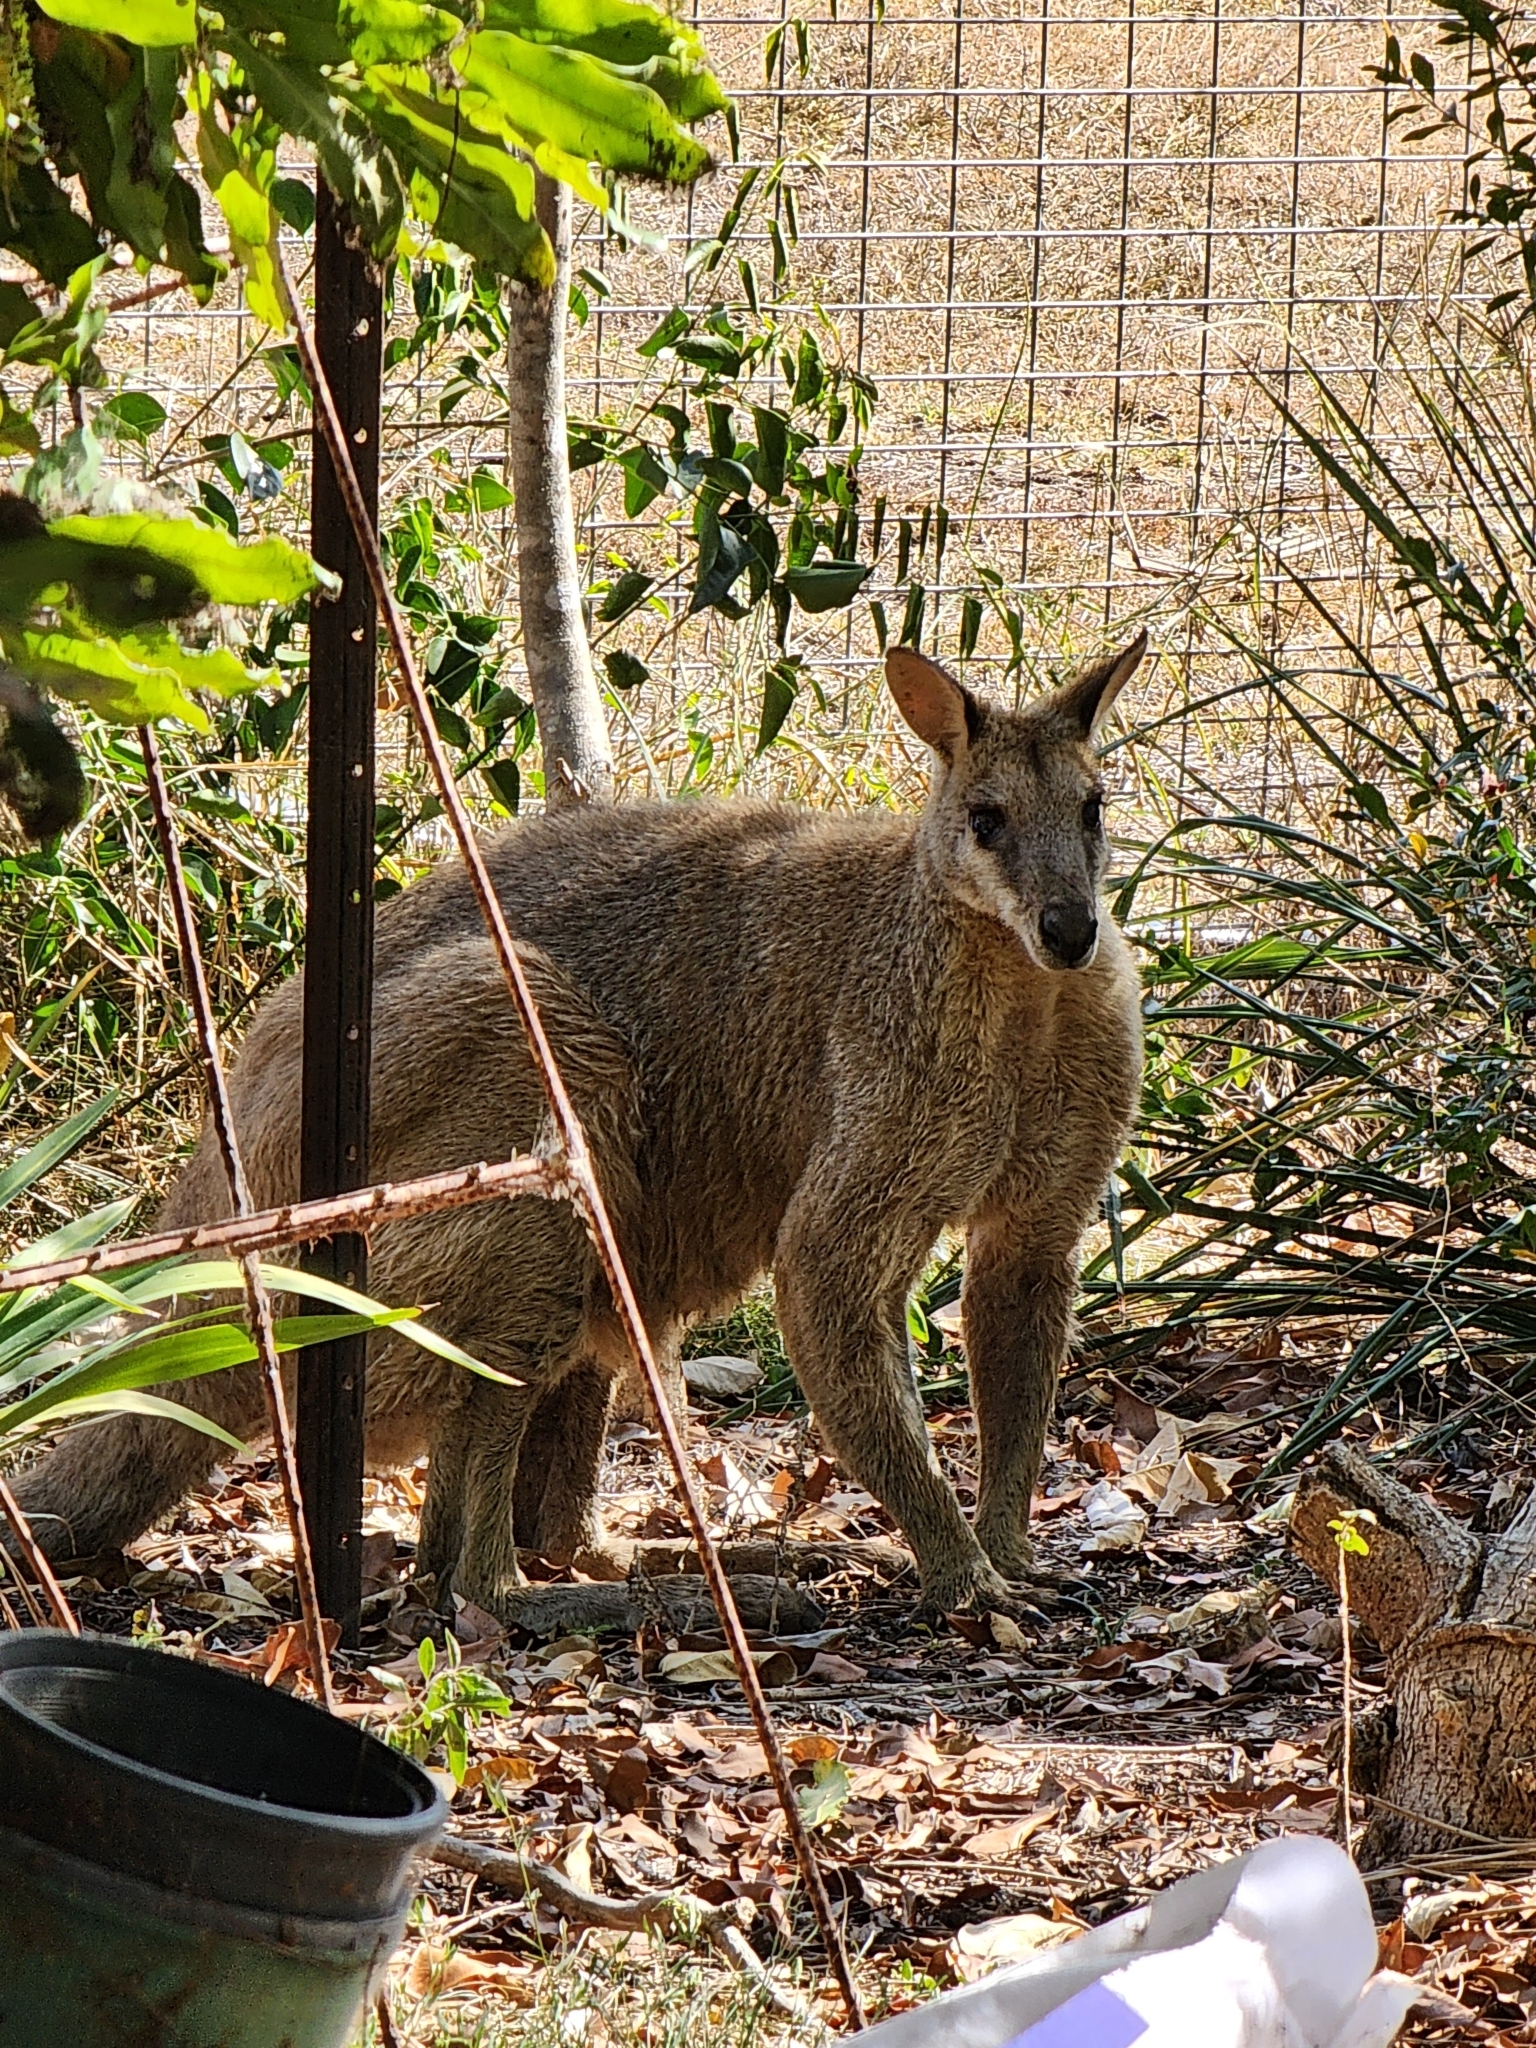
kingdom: Animalia
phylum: Chordata
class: Mammalia
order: Diprotodontia
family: Macropodidae
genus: Macropus
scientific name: Macropus agilis
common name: Agile wallaby
